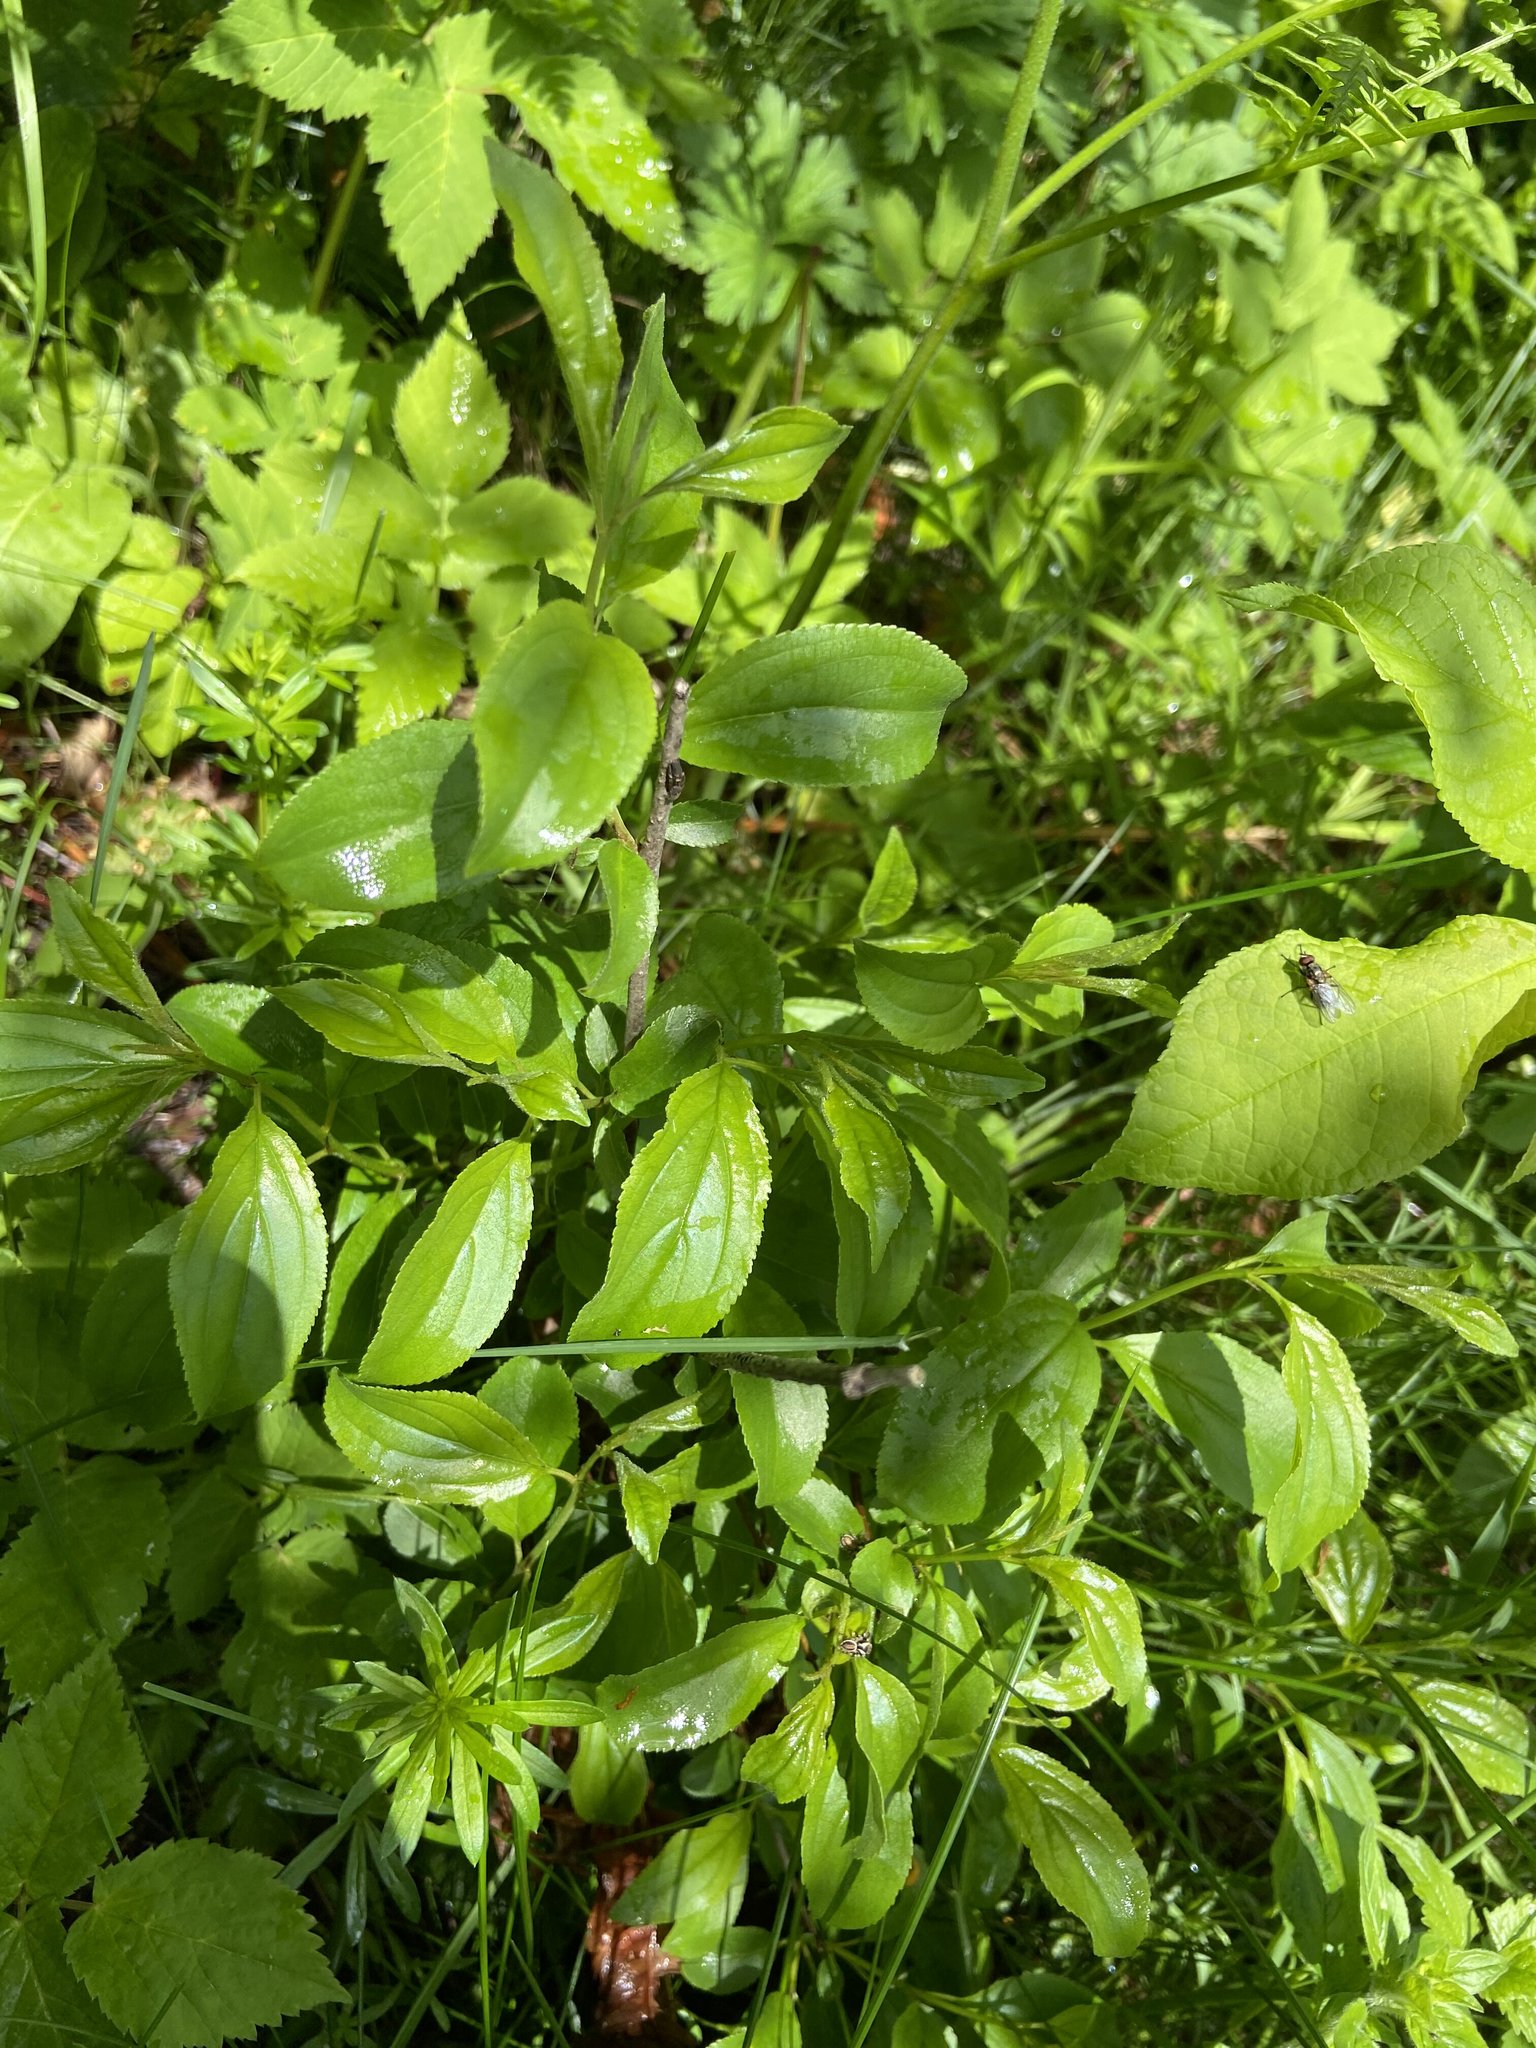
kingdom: Plantae
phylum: Tracheophyta
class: Magnoliopsida
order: Rosales
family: Rhamnaceae
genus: Rhamnus
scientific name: Rhamnus cathartica
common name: Common buckthorn
